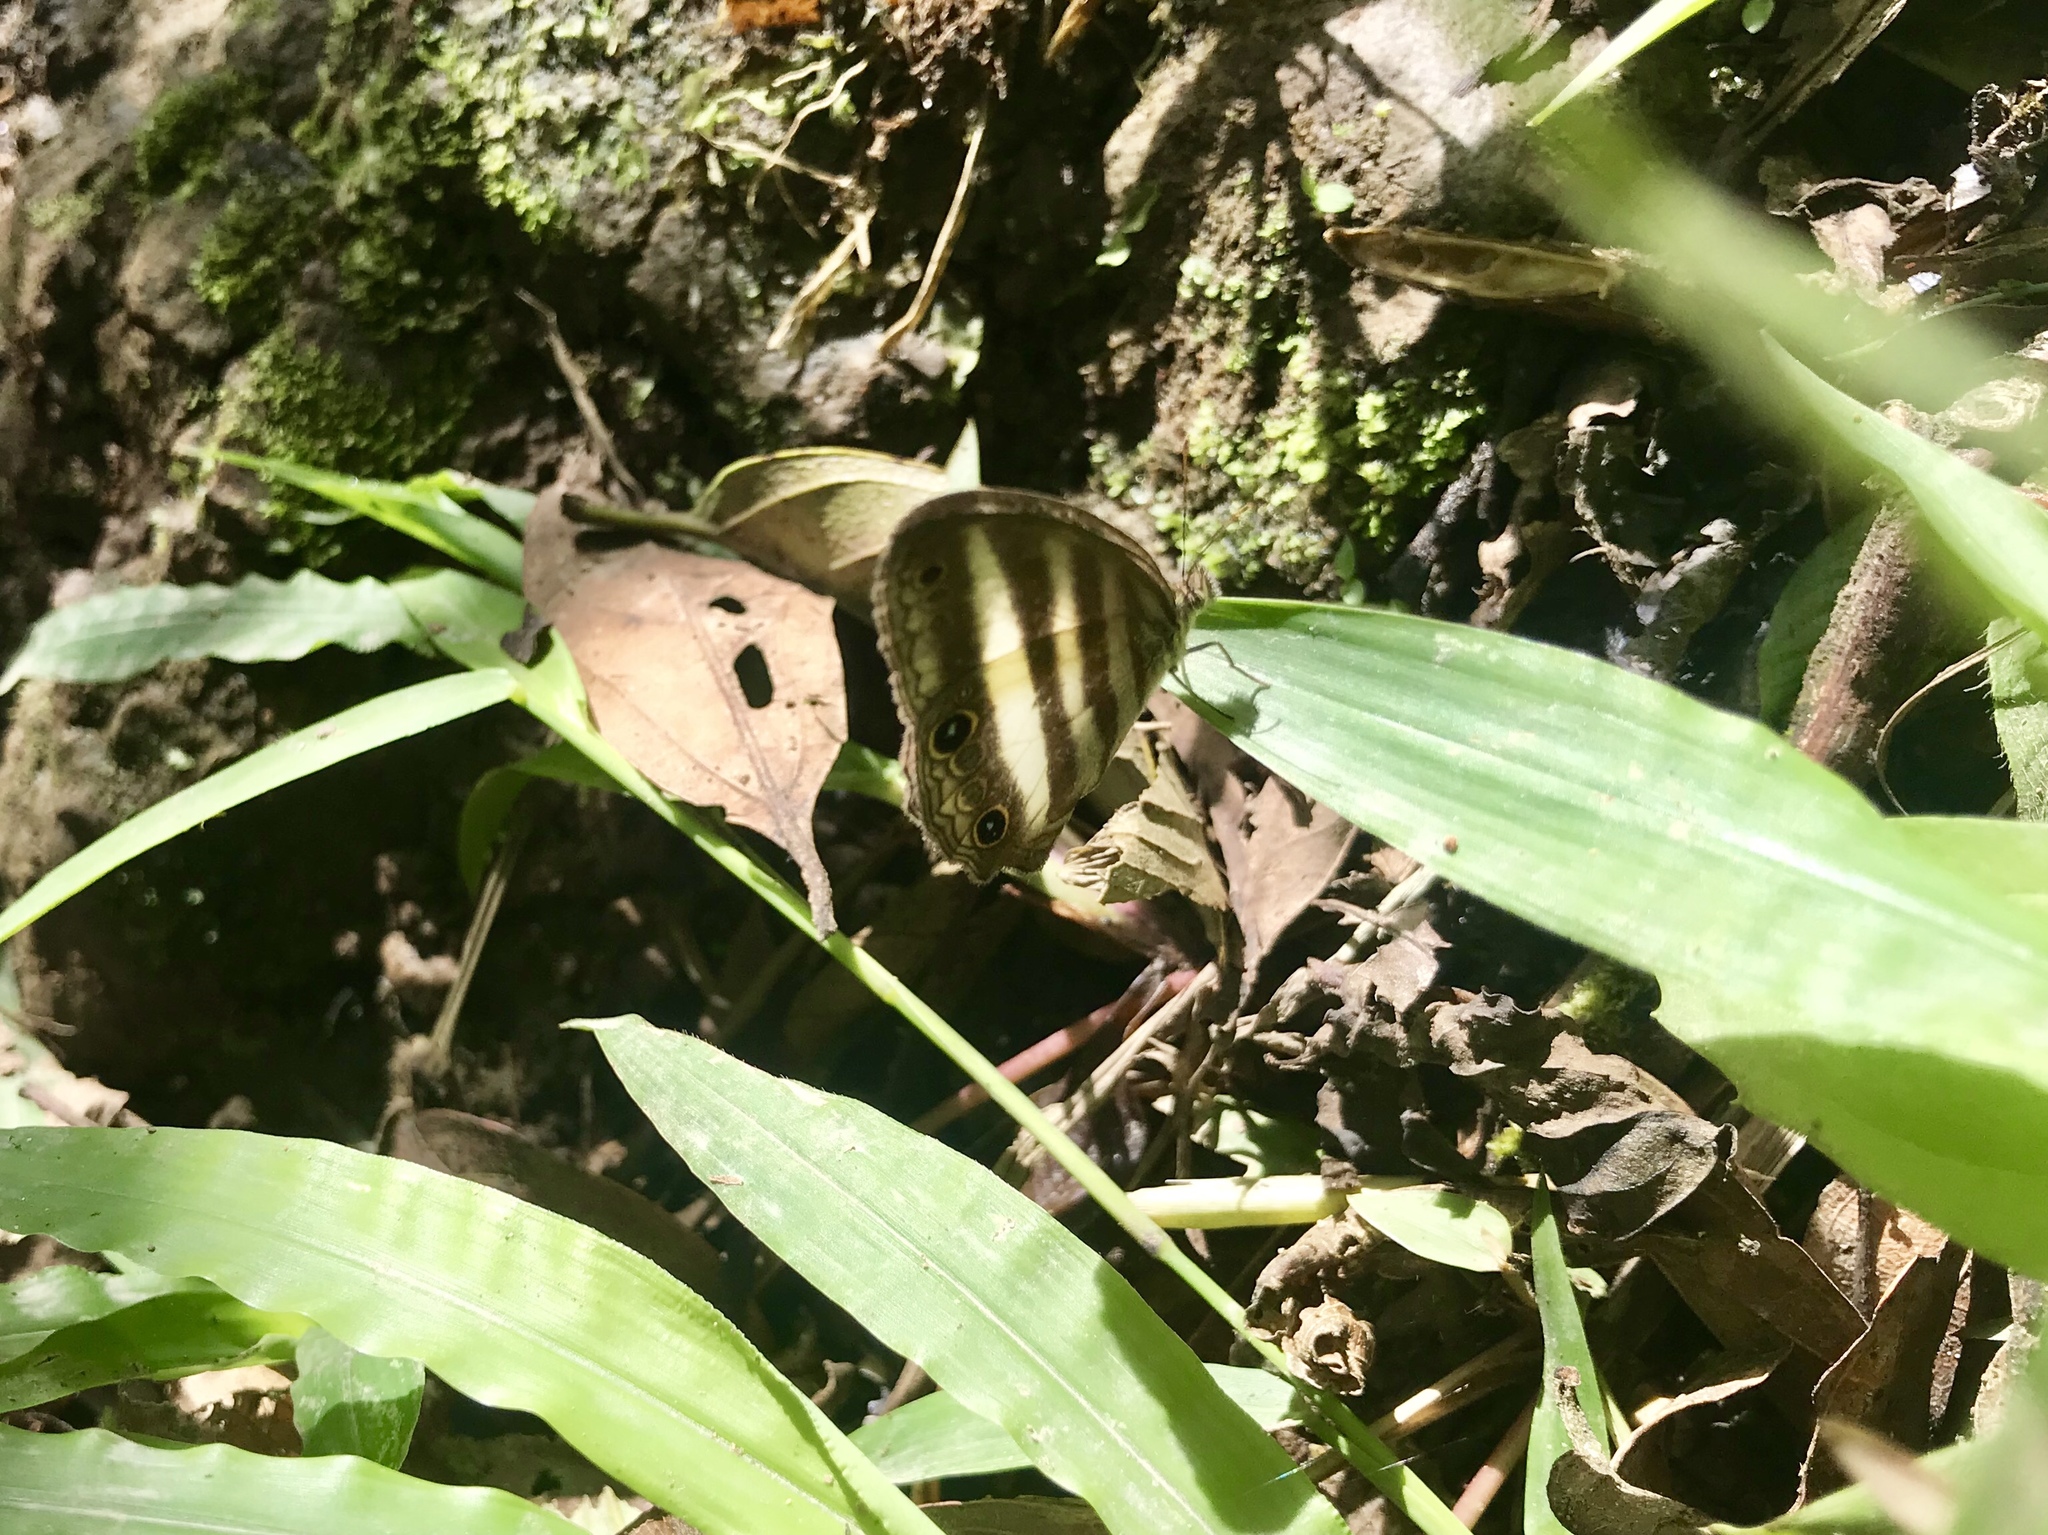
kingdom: Animalia
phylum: Arthropoda
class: Insecta
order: Lepidoptera
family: Nymphalidae
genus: Pareuptychia
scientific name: Pareuptychia hesione
